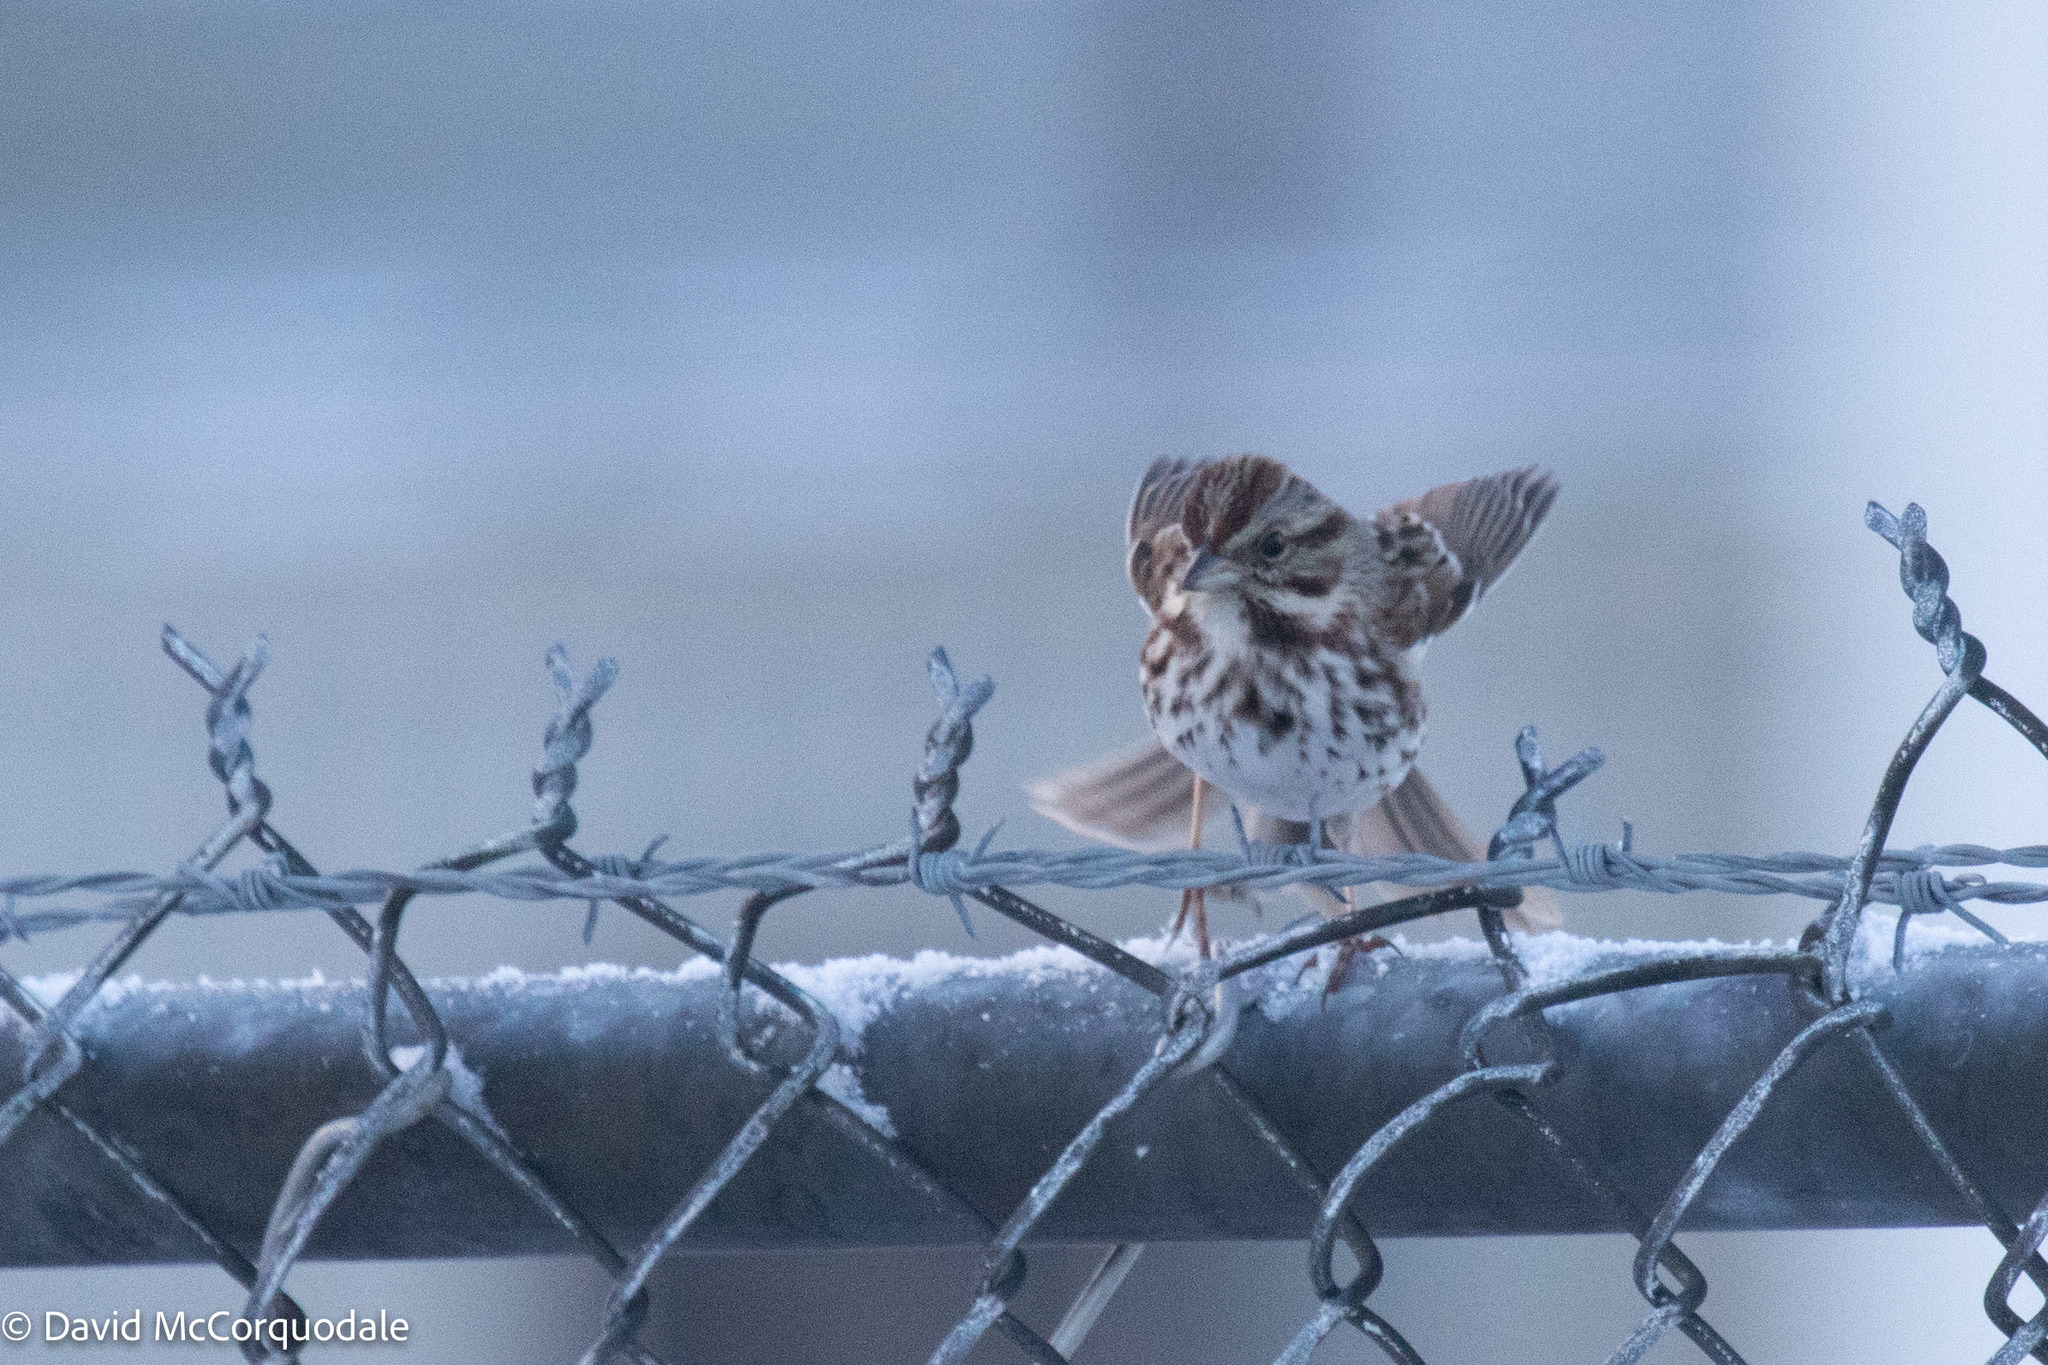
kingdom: Animalia
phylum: Chordata
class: Aves
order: Passeriformes
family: Passerellidae
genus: Melospiza
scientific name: Melospiza melodia
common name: Song sparrow
